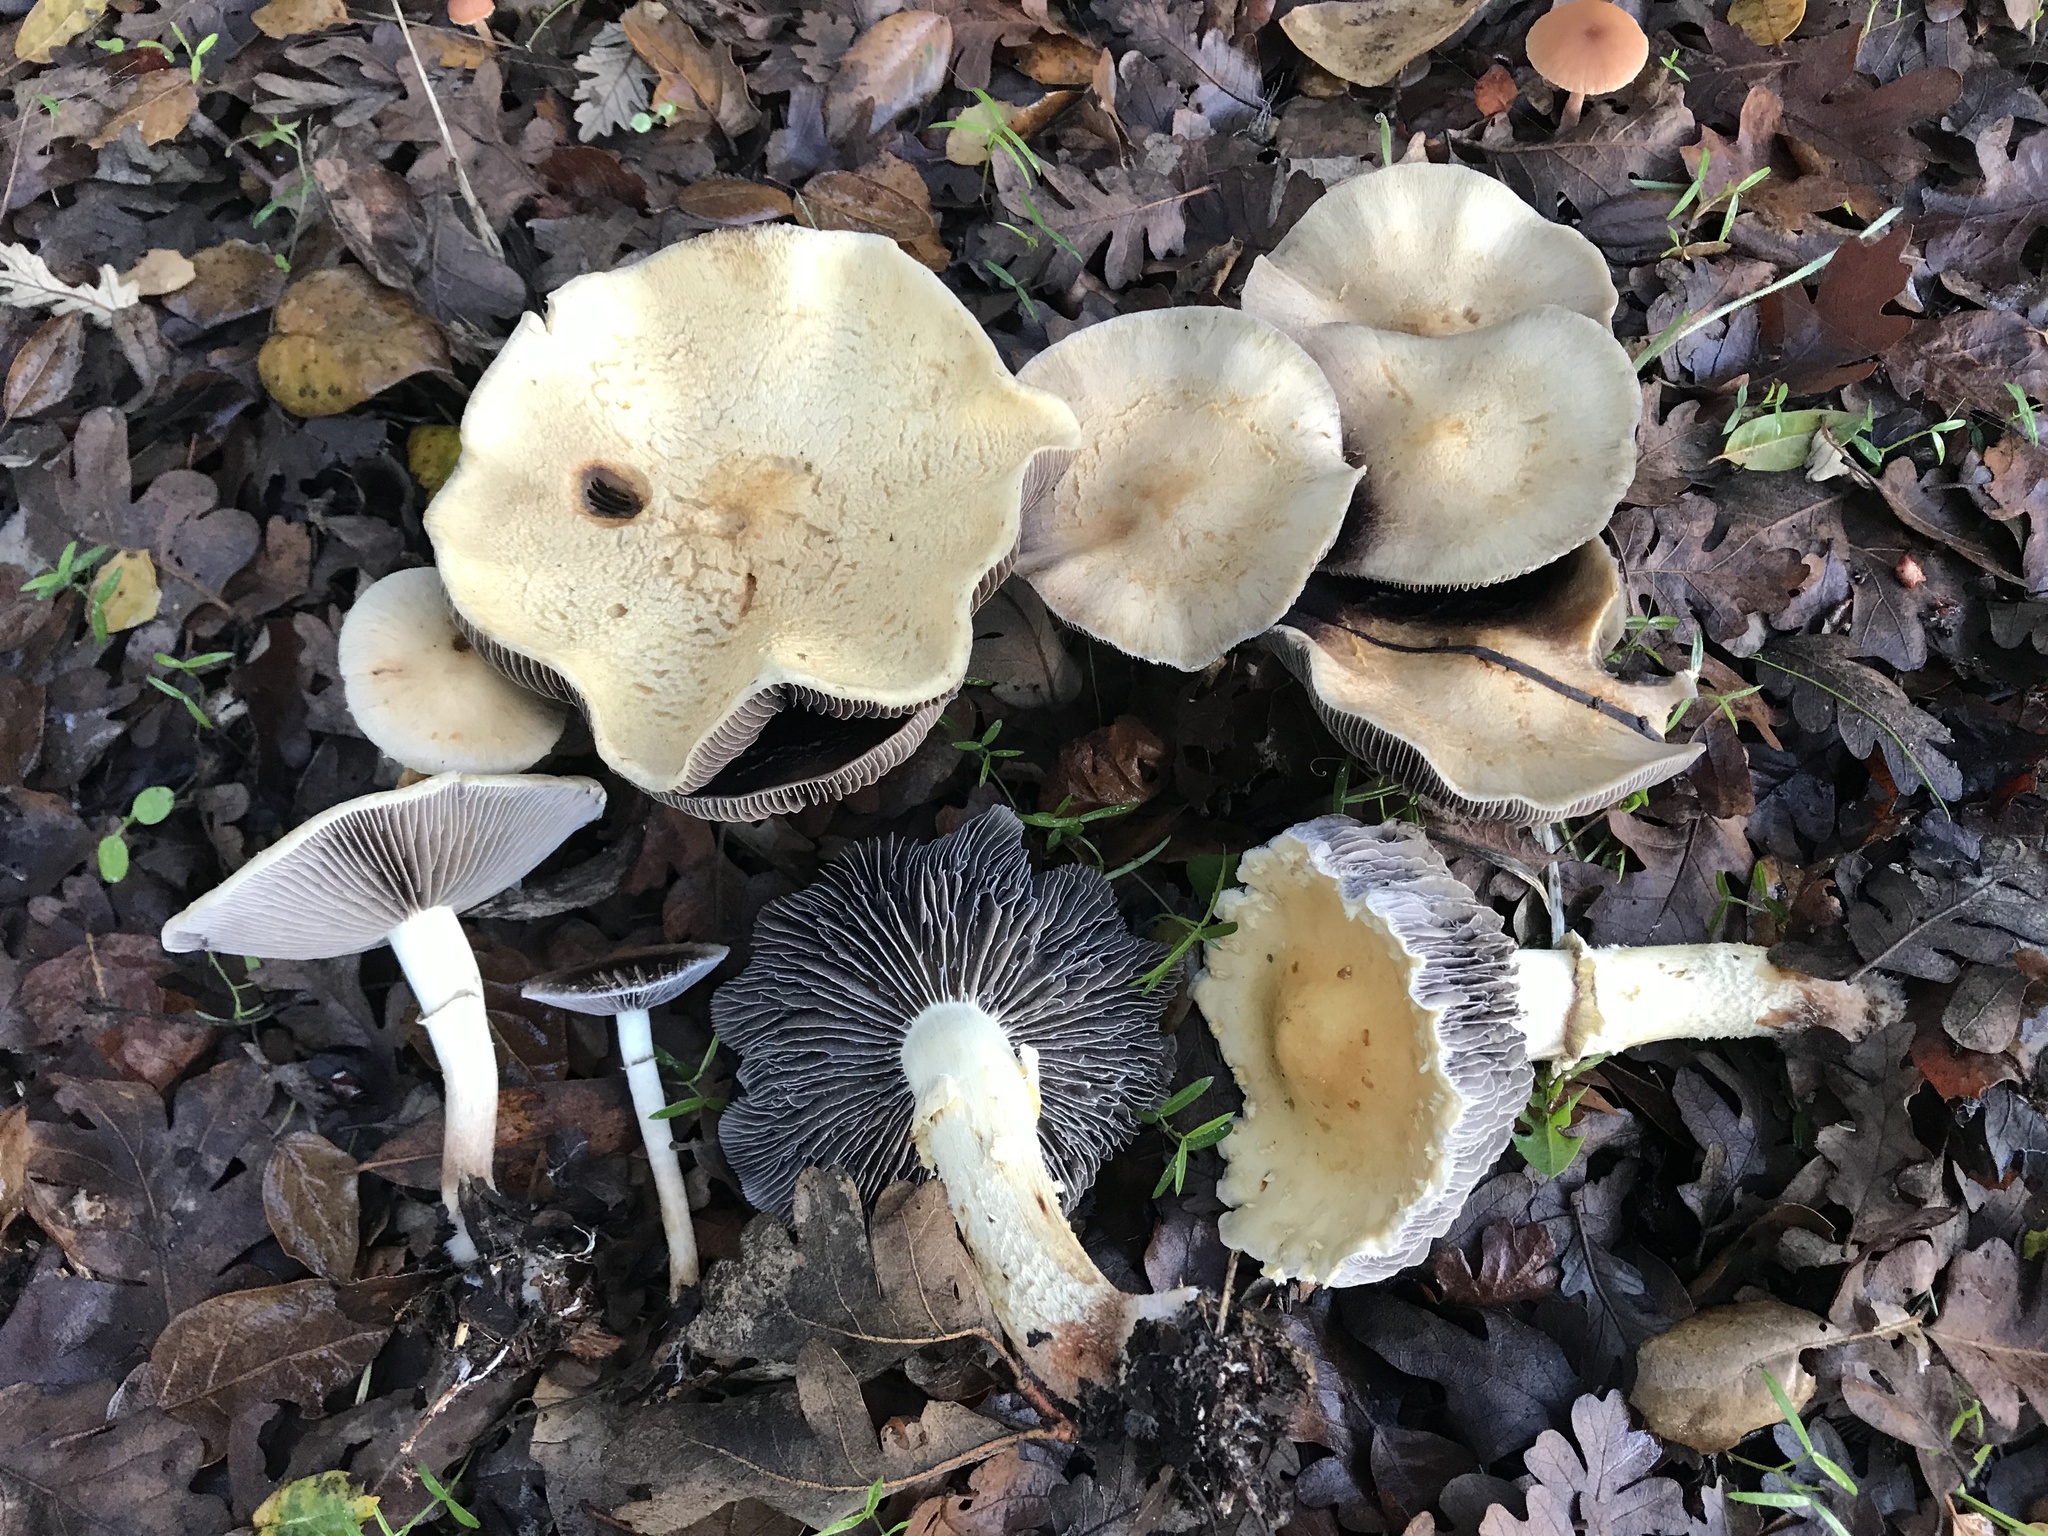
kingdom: Fungi
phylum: Basidiomycota
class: Agaricomycetes
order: Agaricales
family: Strophariaceae
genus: Leratiomyces
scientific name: Leratiomyces percevalii
